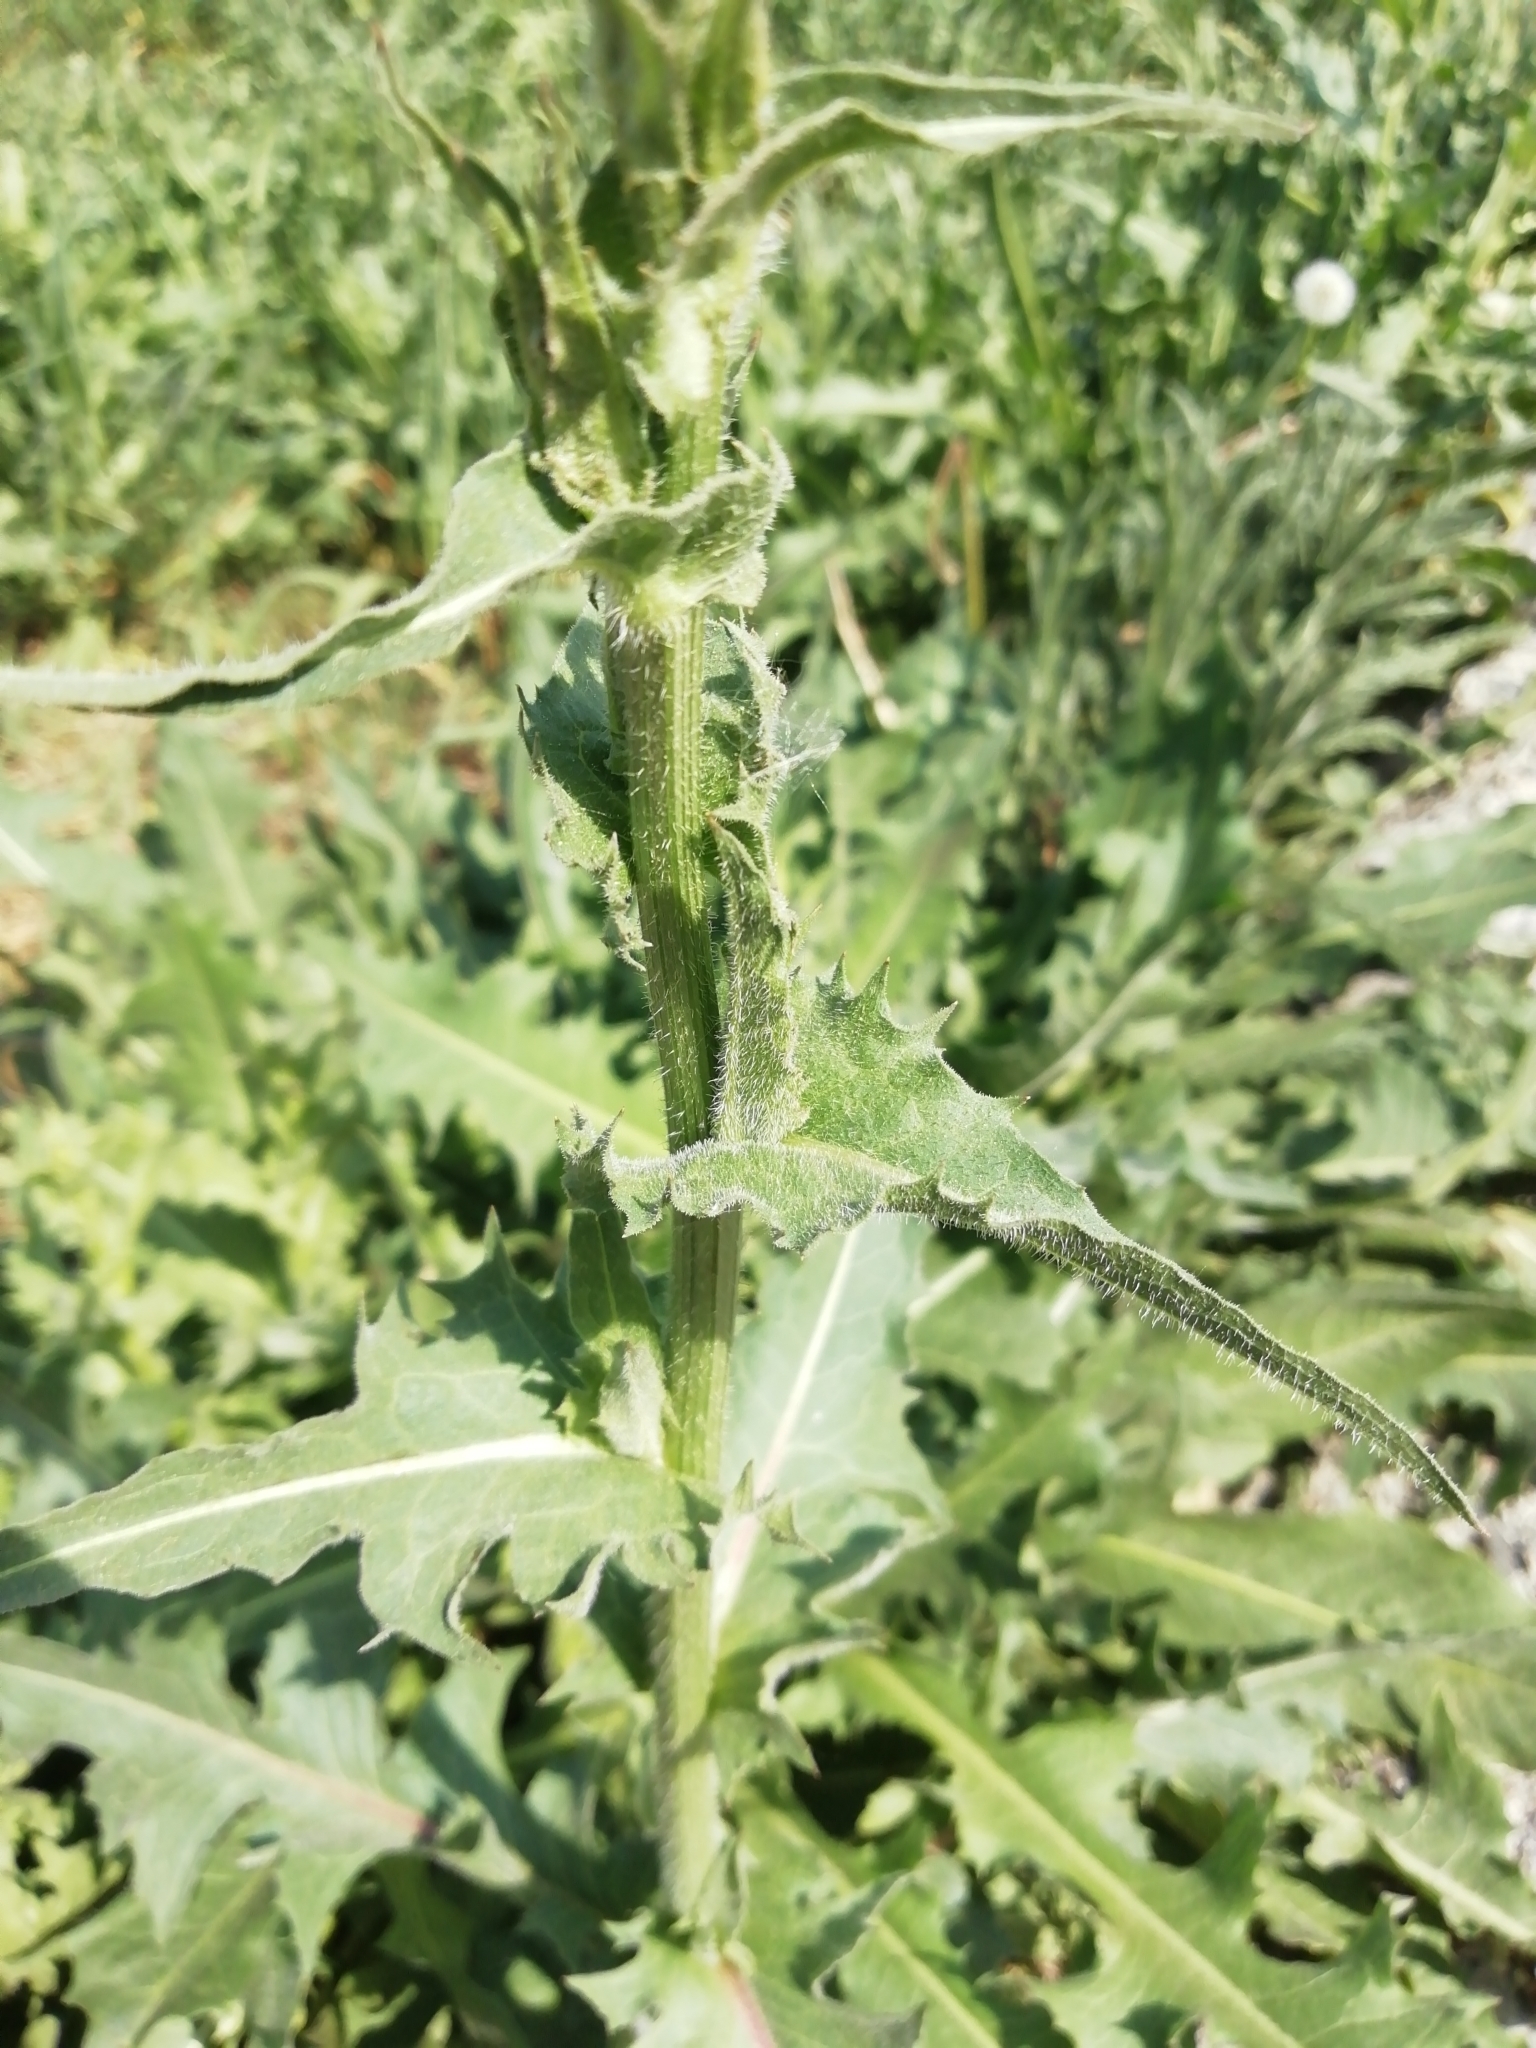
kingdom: Plantae
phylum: Tracheophyta
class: Magnoliopsida
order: Asterales
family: Asteraceae
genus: Cichorium
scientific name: Cichorium intybus
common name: Chicory
